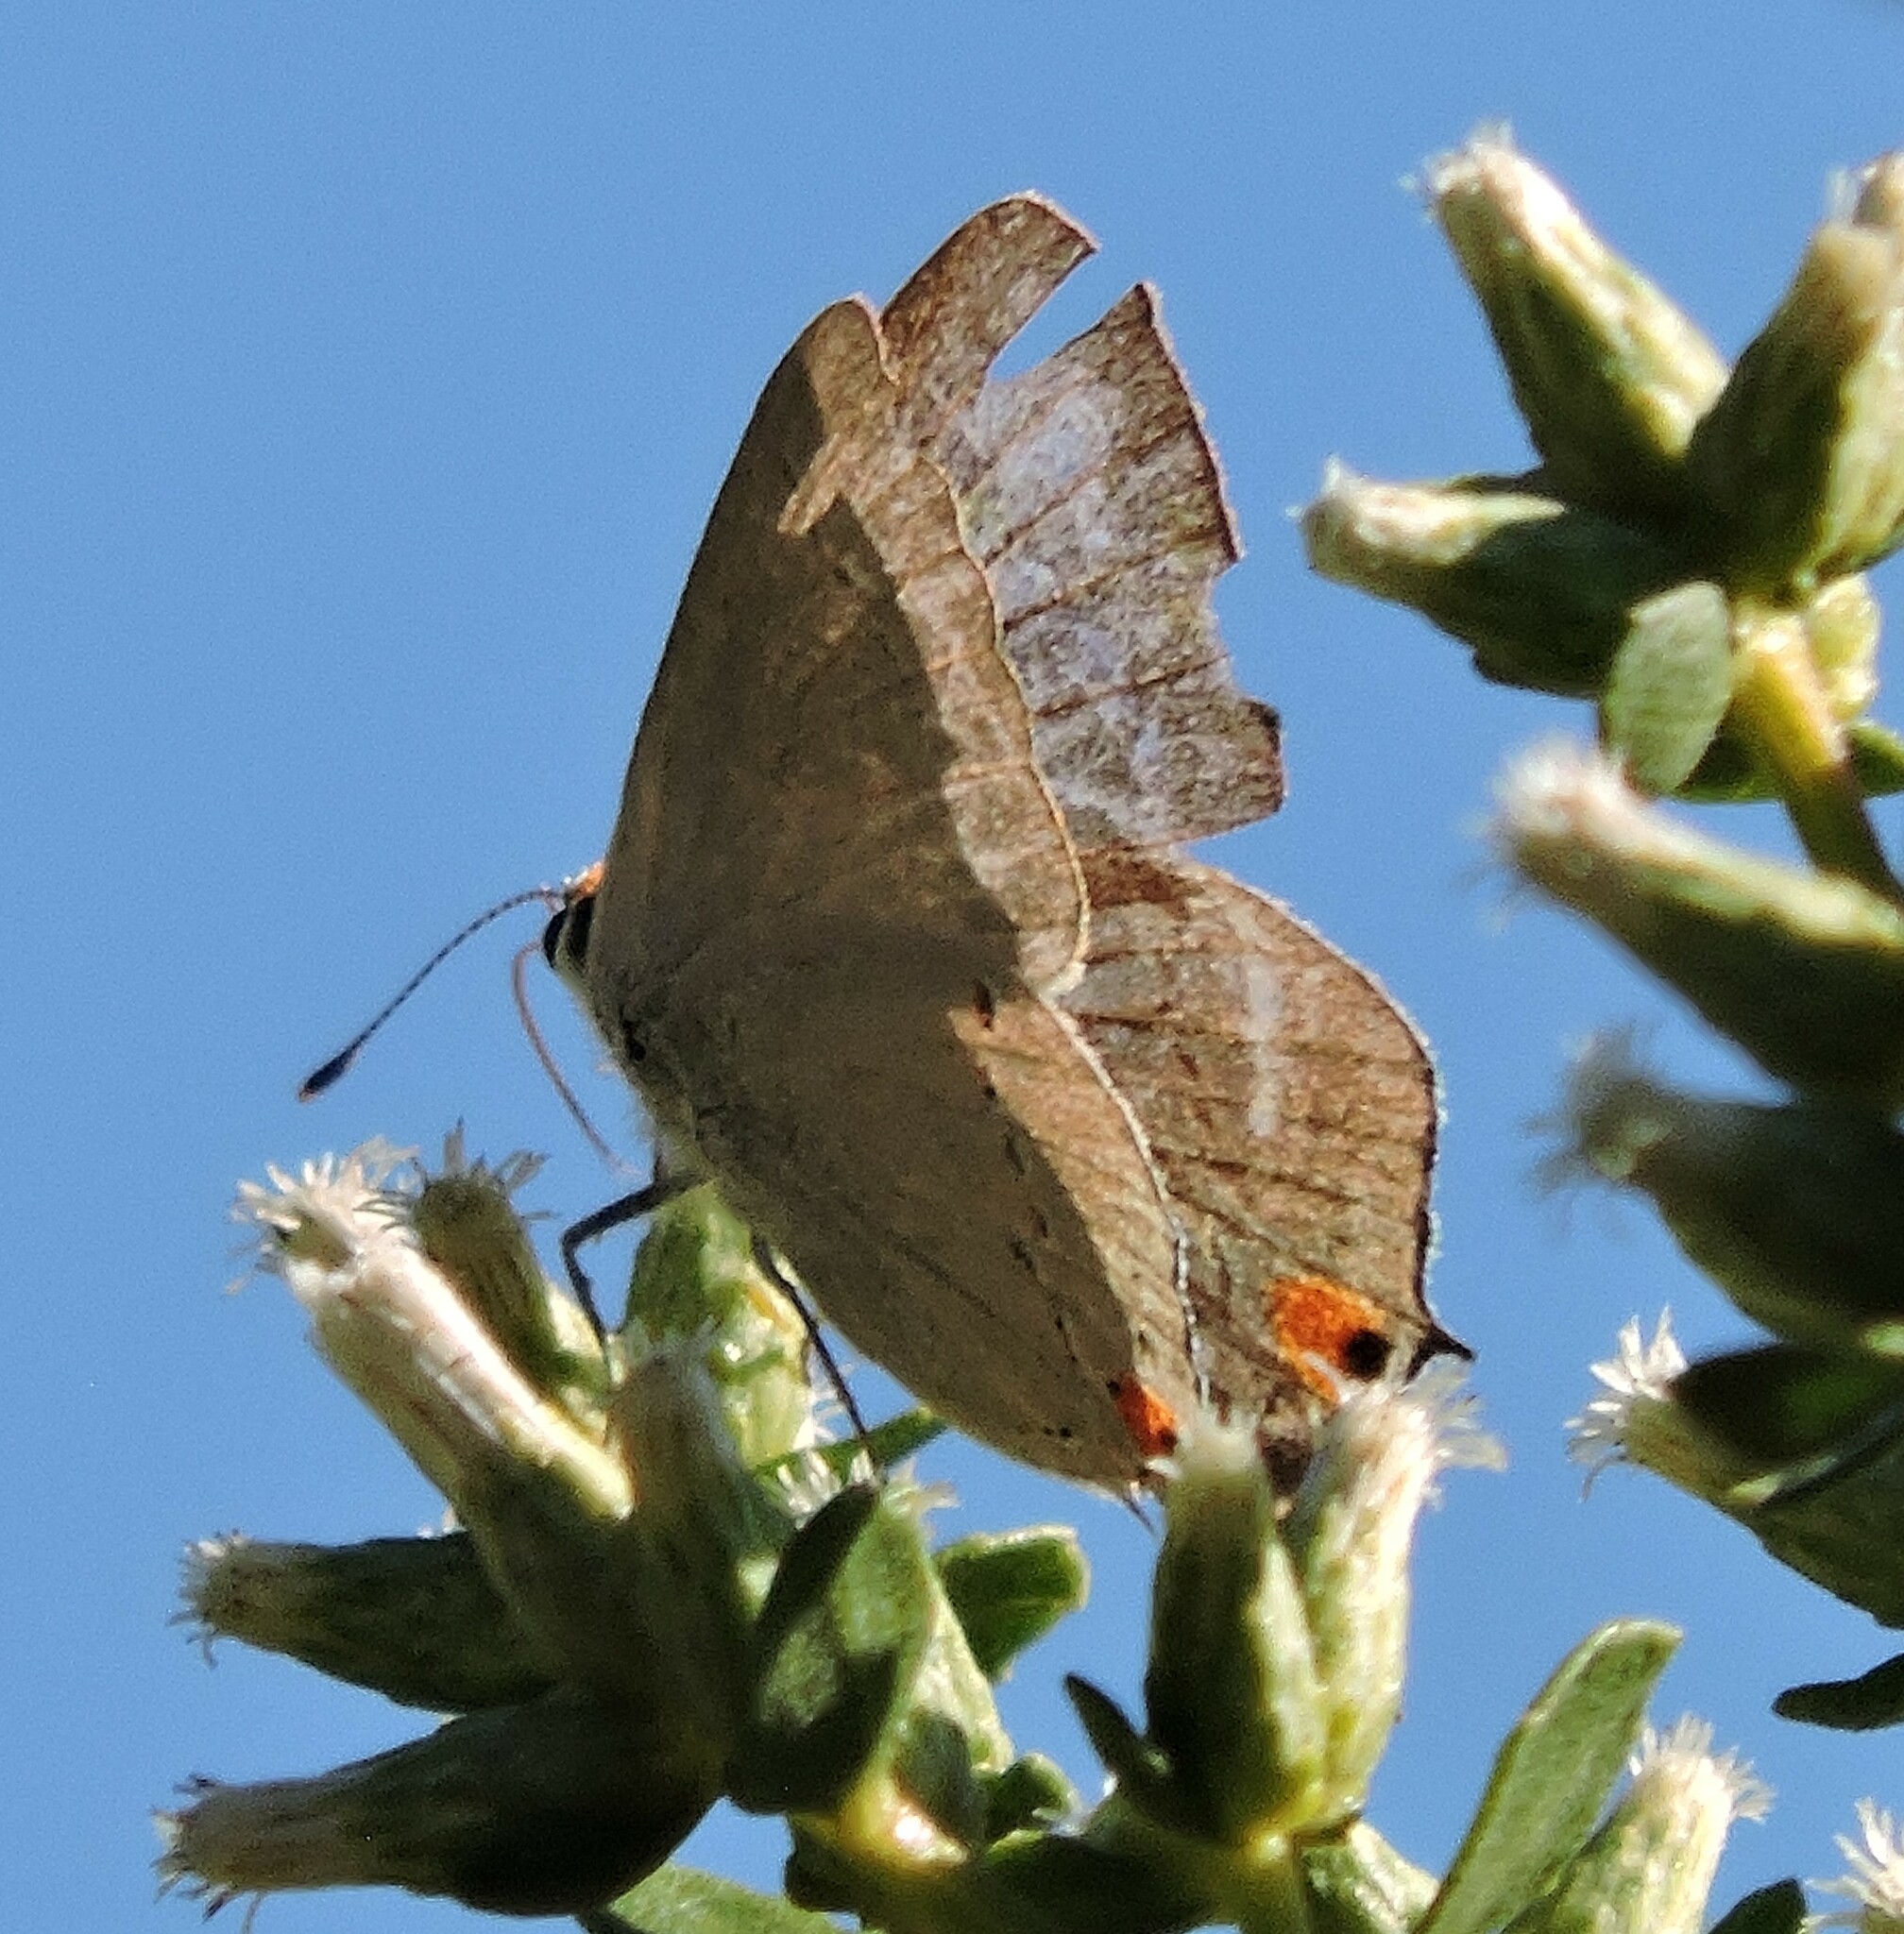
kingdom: Animalia
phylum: Arthropoda
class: Insecta
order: Lepidoptera
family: Lycaenidae
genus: Strymon
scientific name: Strymon melinus
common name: Gray hairstreak
